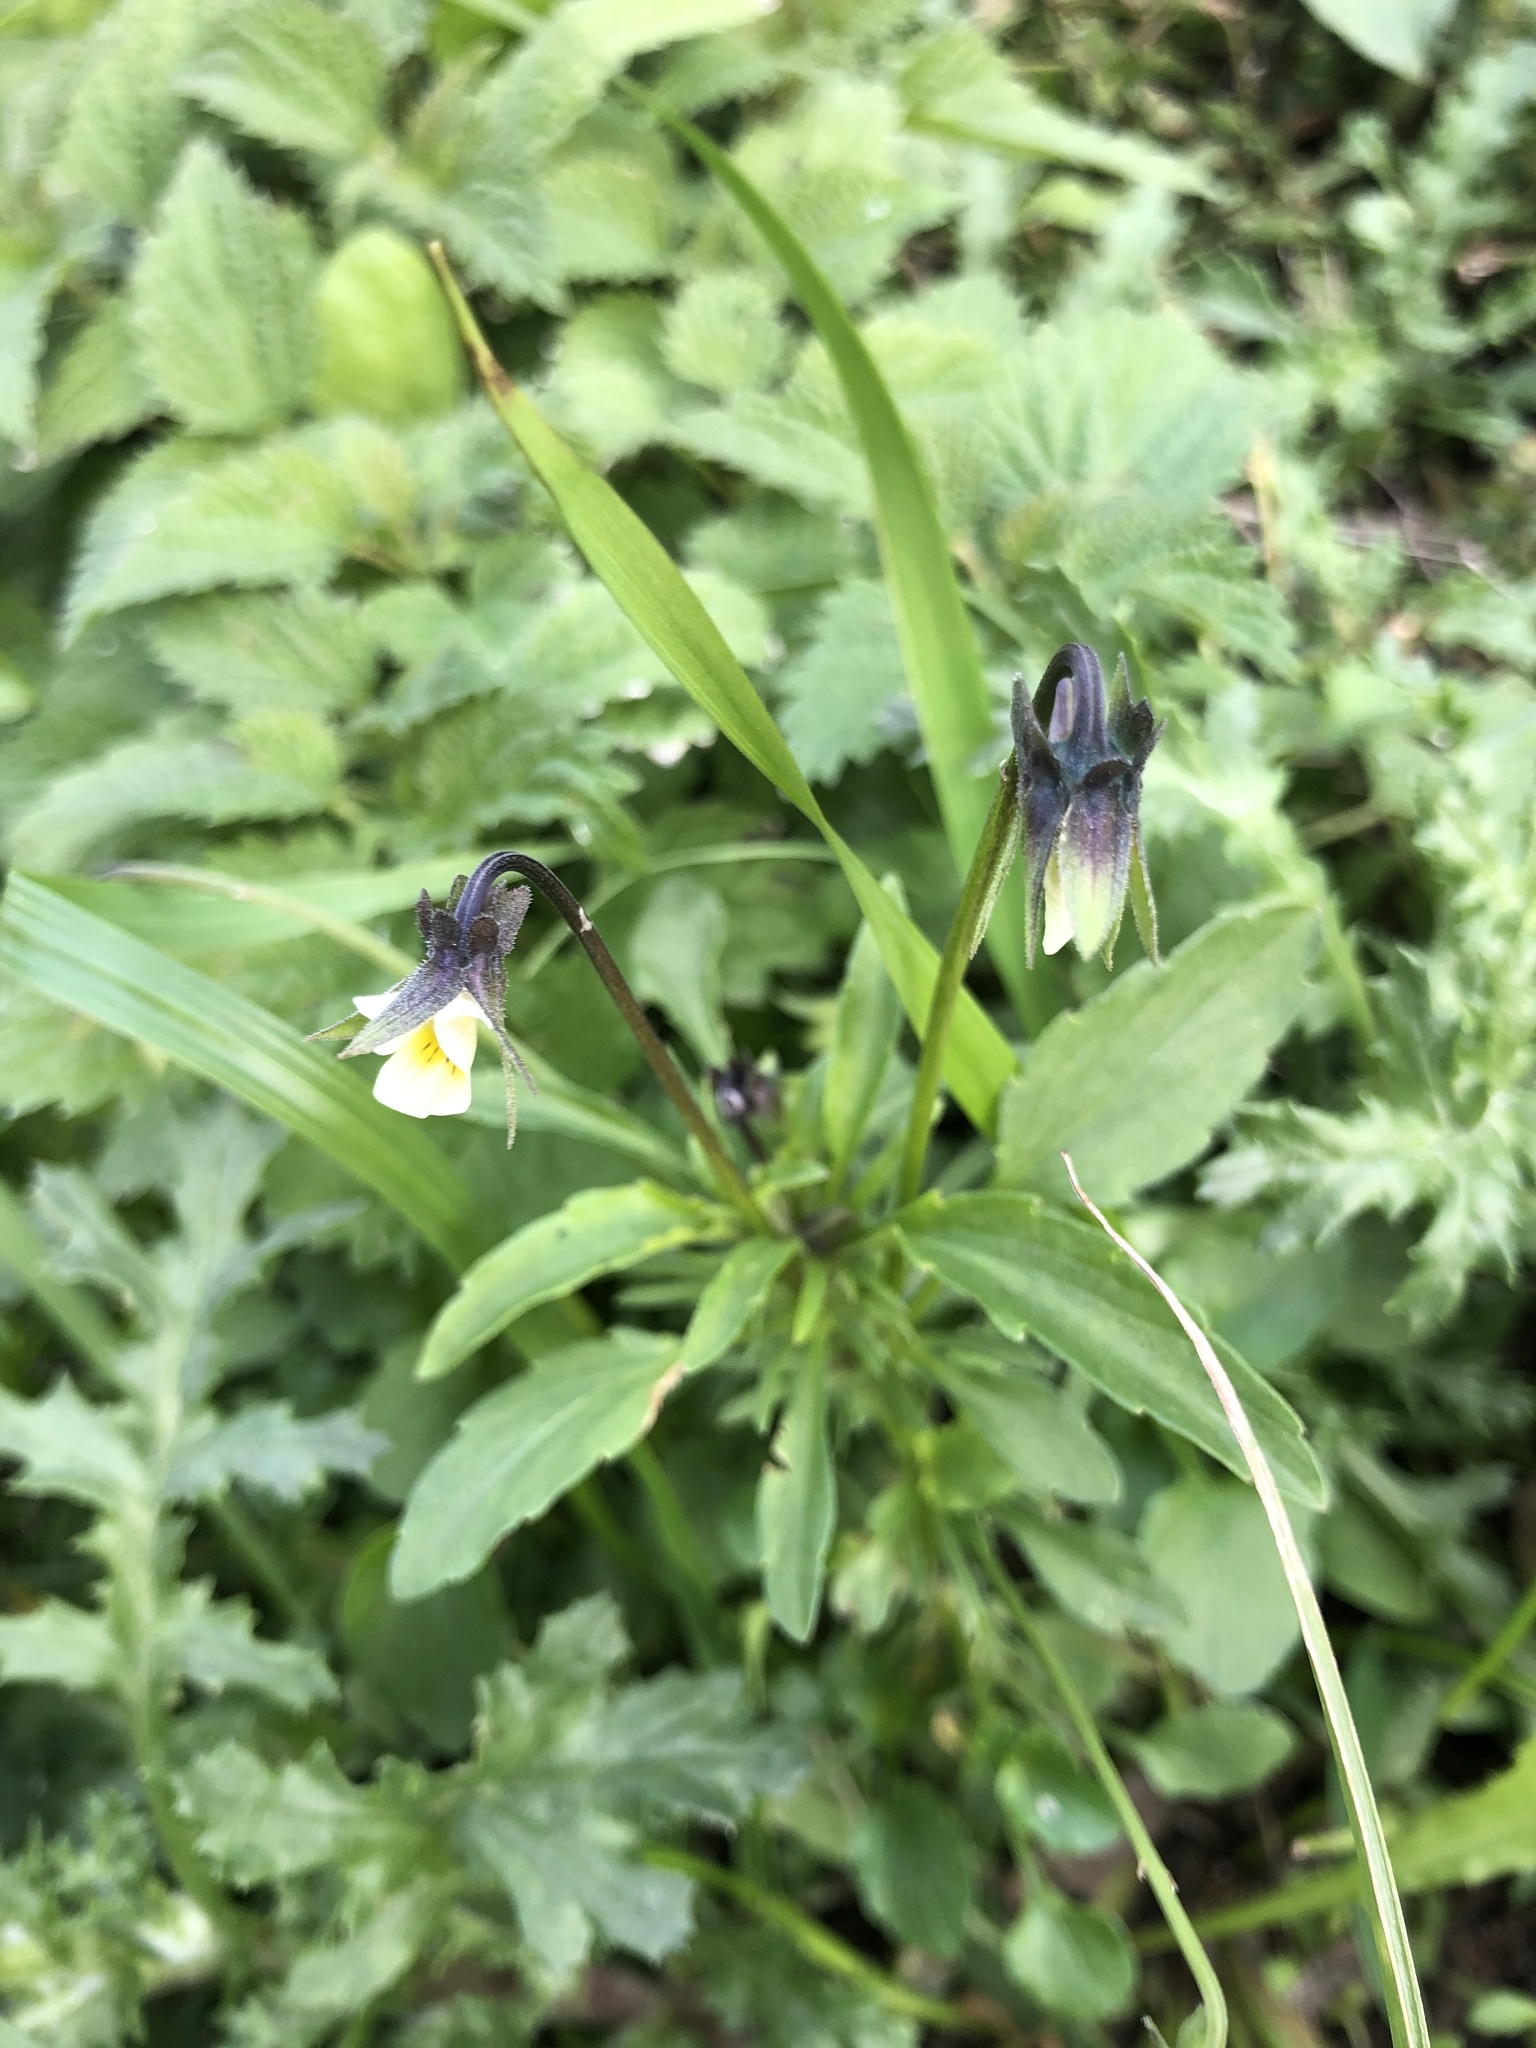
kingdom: Plantae
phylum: Tracheophyta
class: Magnoliopsida
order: Malpighiales
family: Violaceae
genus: Viola
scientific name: Viola arvensis
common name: Field pansy
